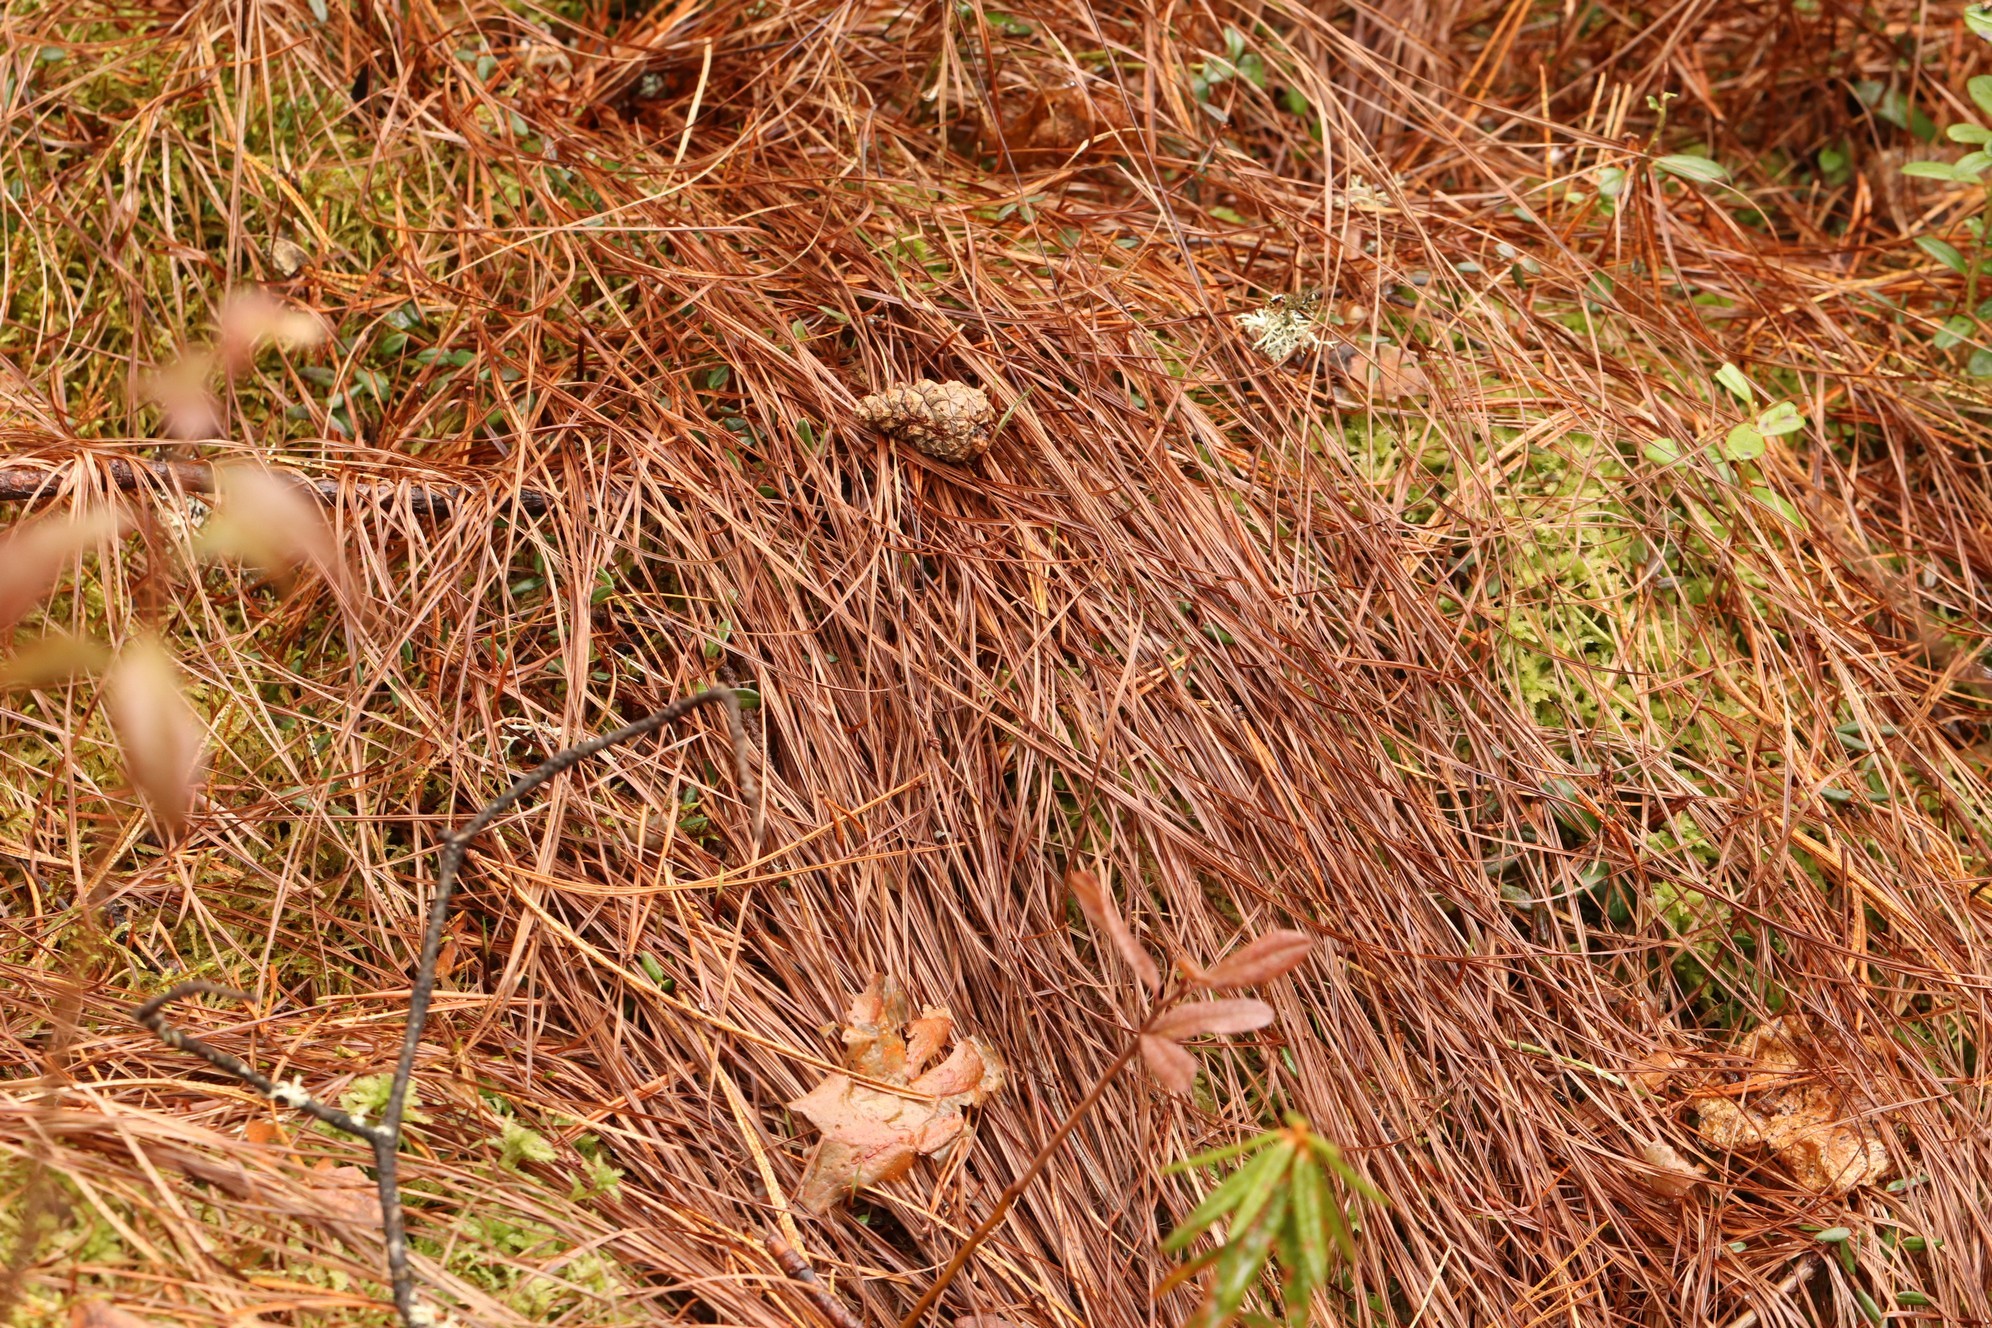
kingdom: Plantae
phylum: Tracheophyta
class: Liliopsida
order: Poales
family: Cyperaceae
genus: Carex
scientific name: Carex globularis
